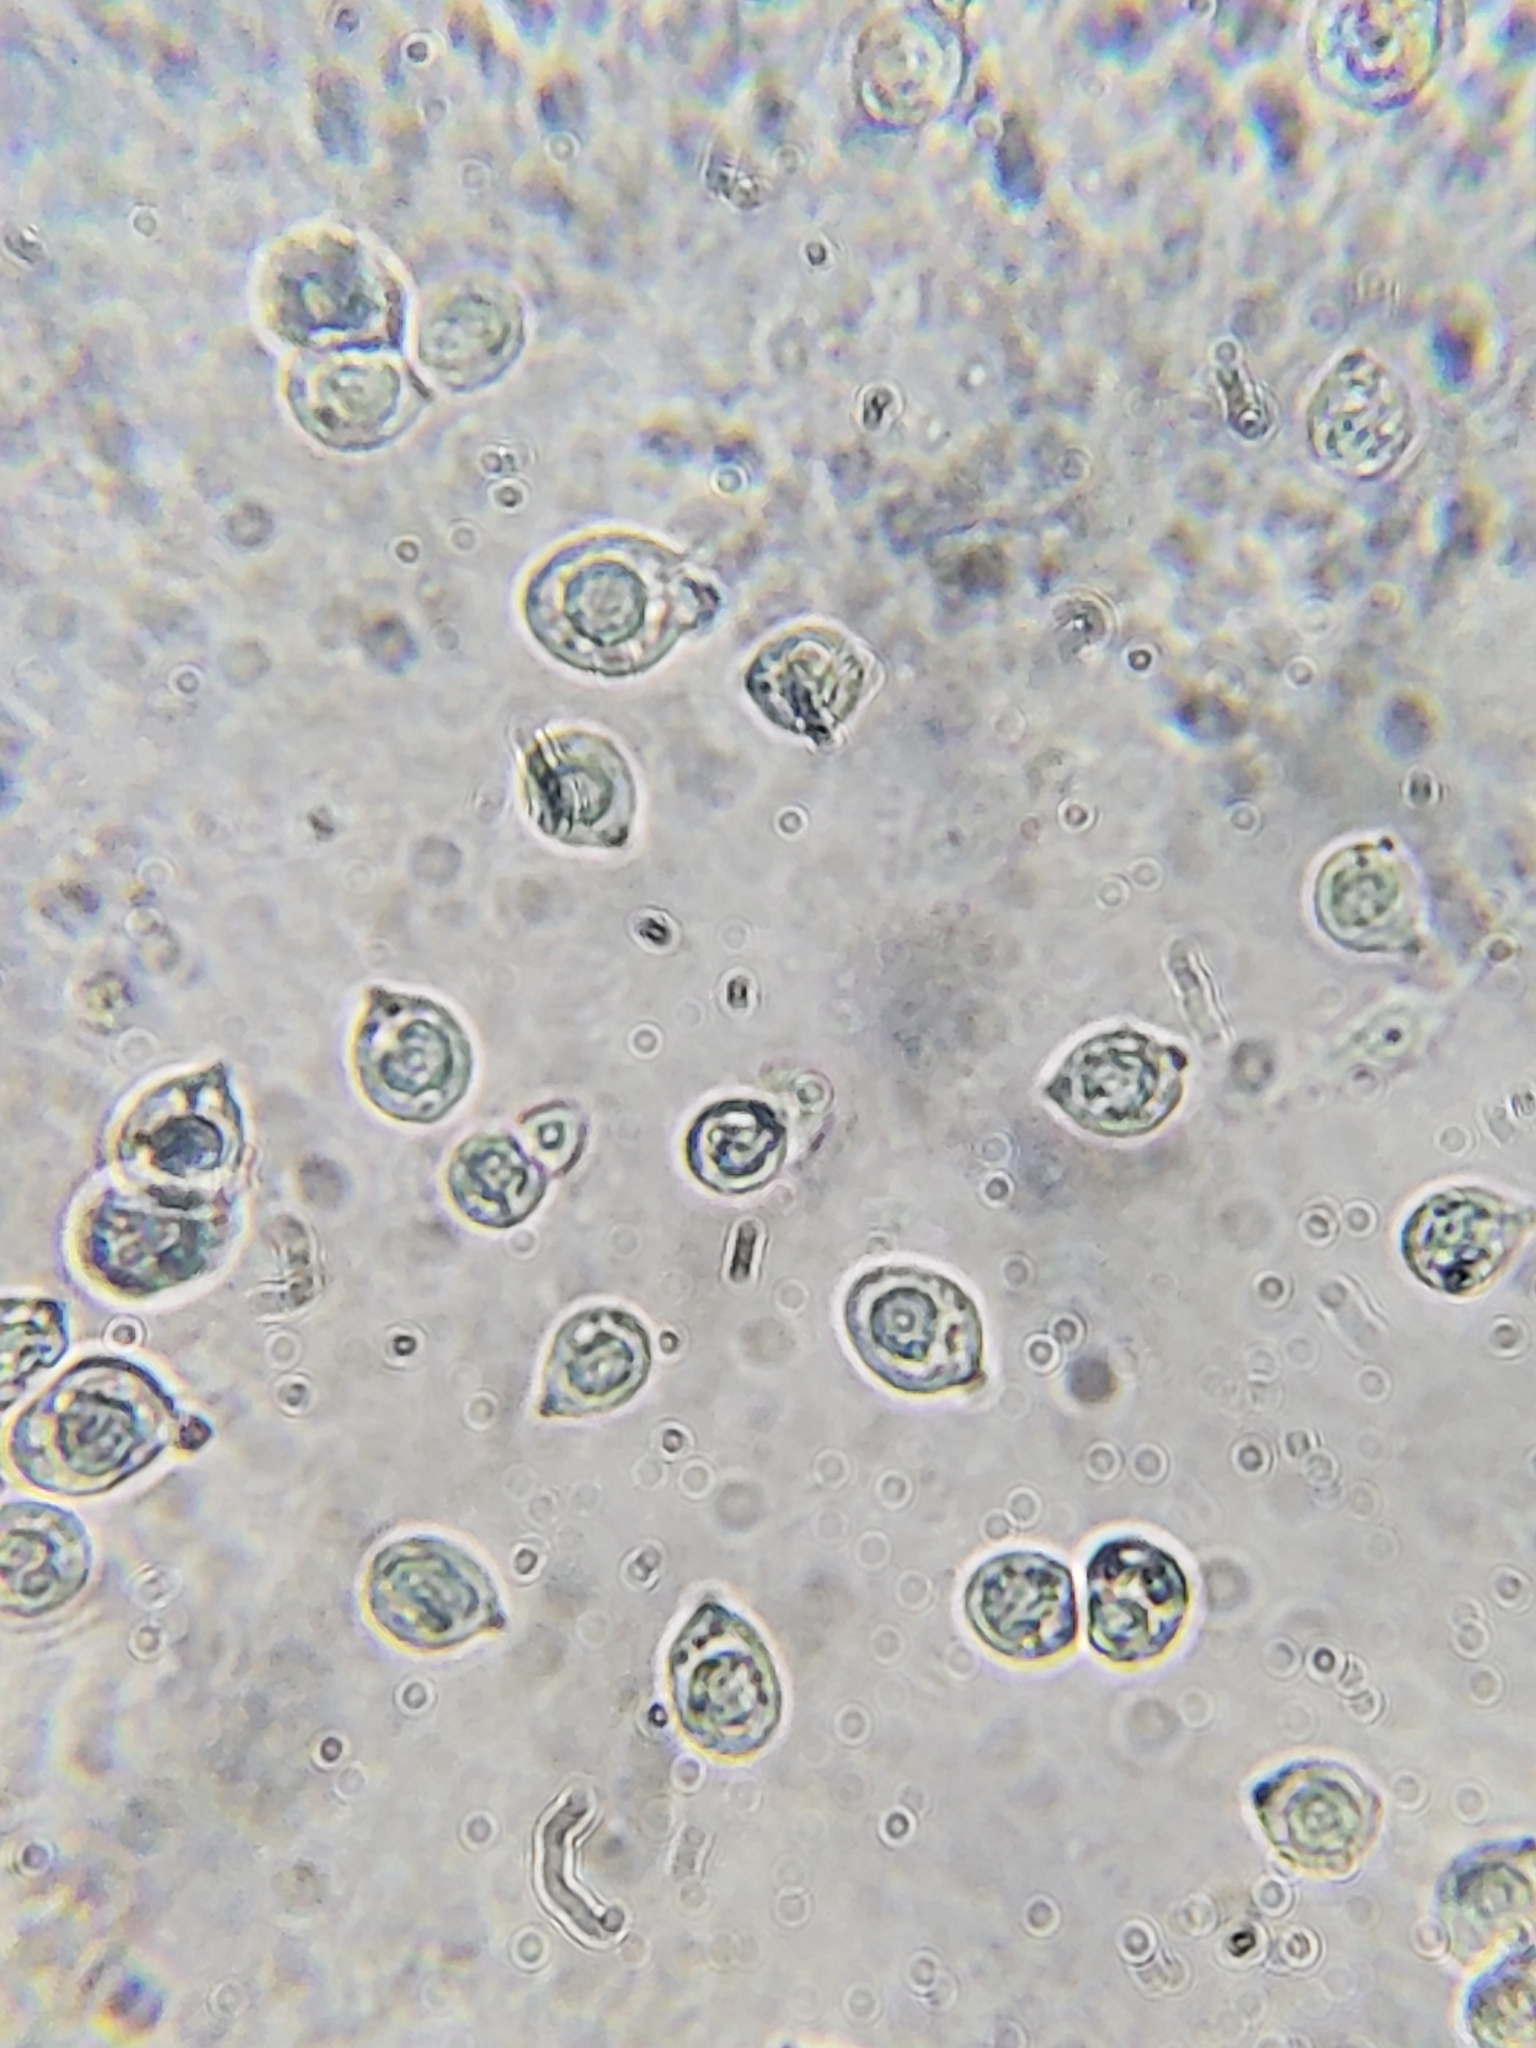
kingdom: Fungi
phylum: Basidiomycota
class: Agaricomycetes
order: Agaricales
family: Physalacriaceae
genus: Desarmillaria
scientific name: Desarmillaria caespitosa
